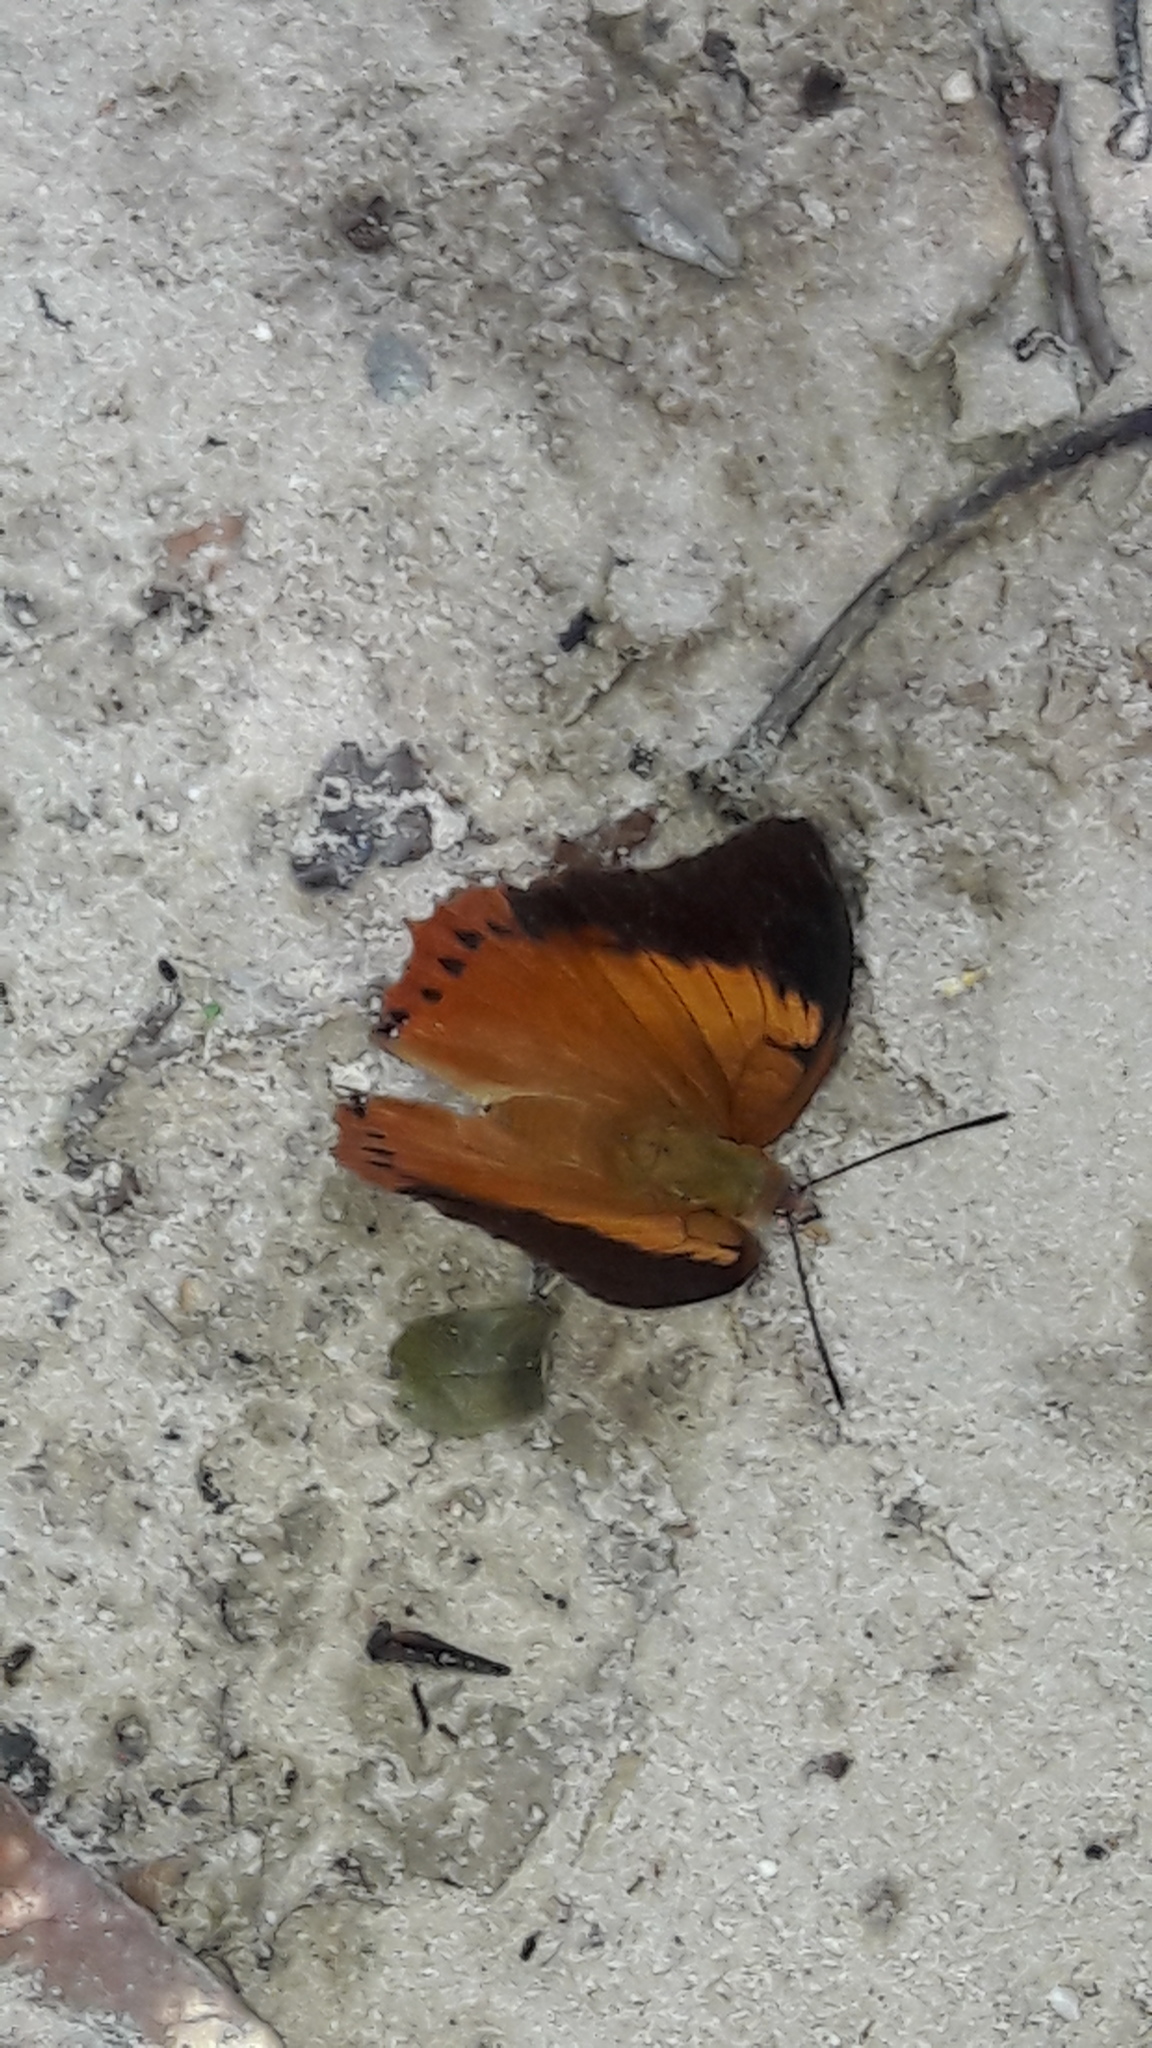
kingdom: Animalia
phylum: Arthropoda
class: Insecta
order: Lepidoptera
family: Nymphalidae
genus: Charaxes
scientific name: Charaxes bernardus
